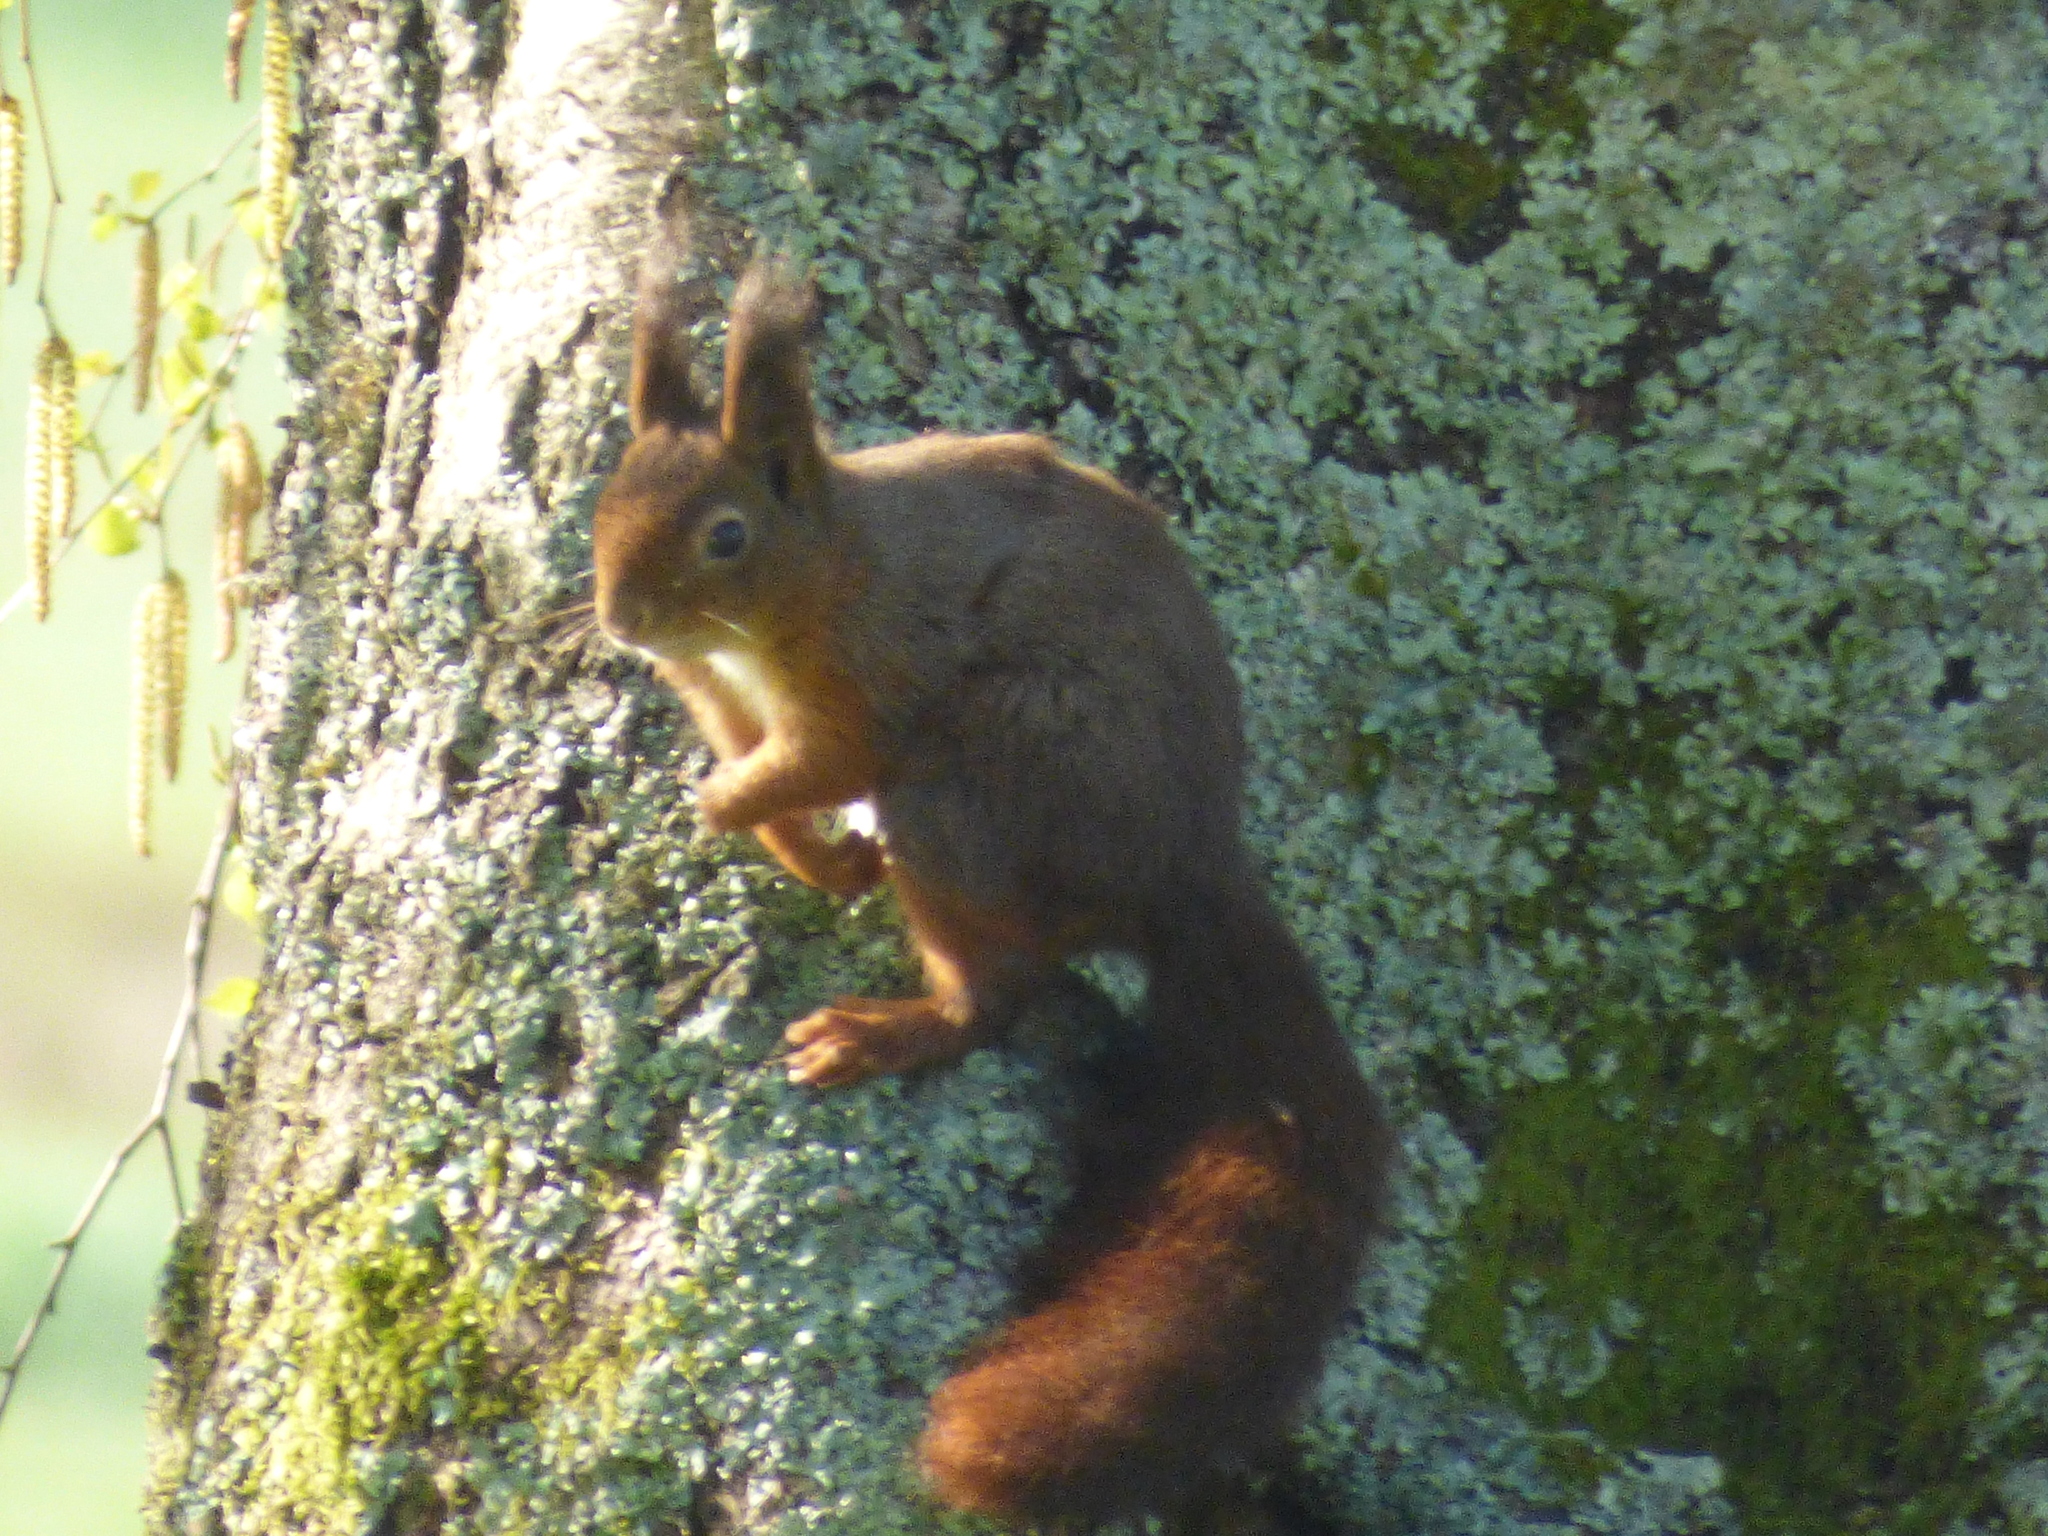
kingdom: Animalia
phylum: Chordata
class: Mammalia
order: Rodentia
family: Sciuridae
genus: Sciurus
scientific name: Sciurus vulgaris
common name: Eurasian red squirrel
